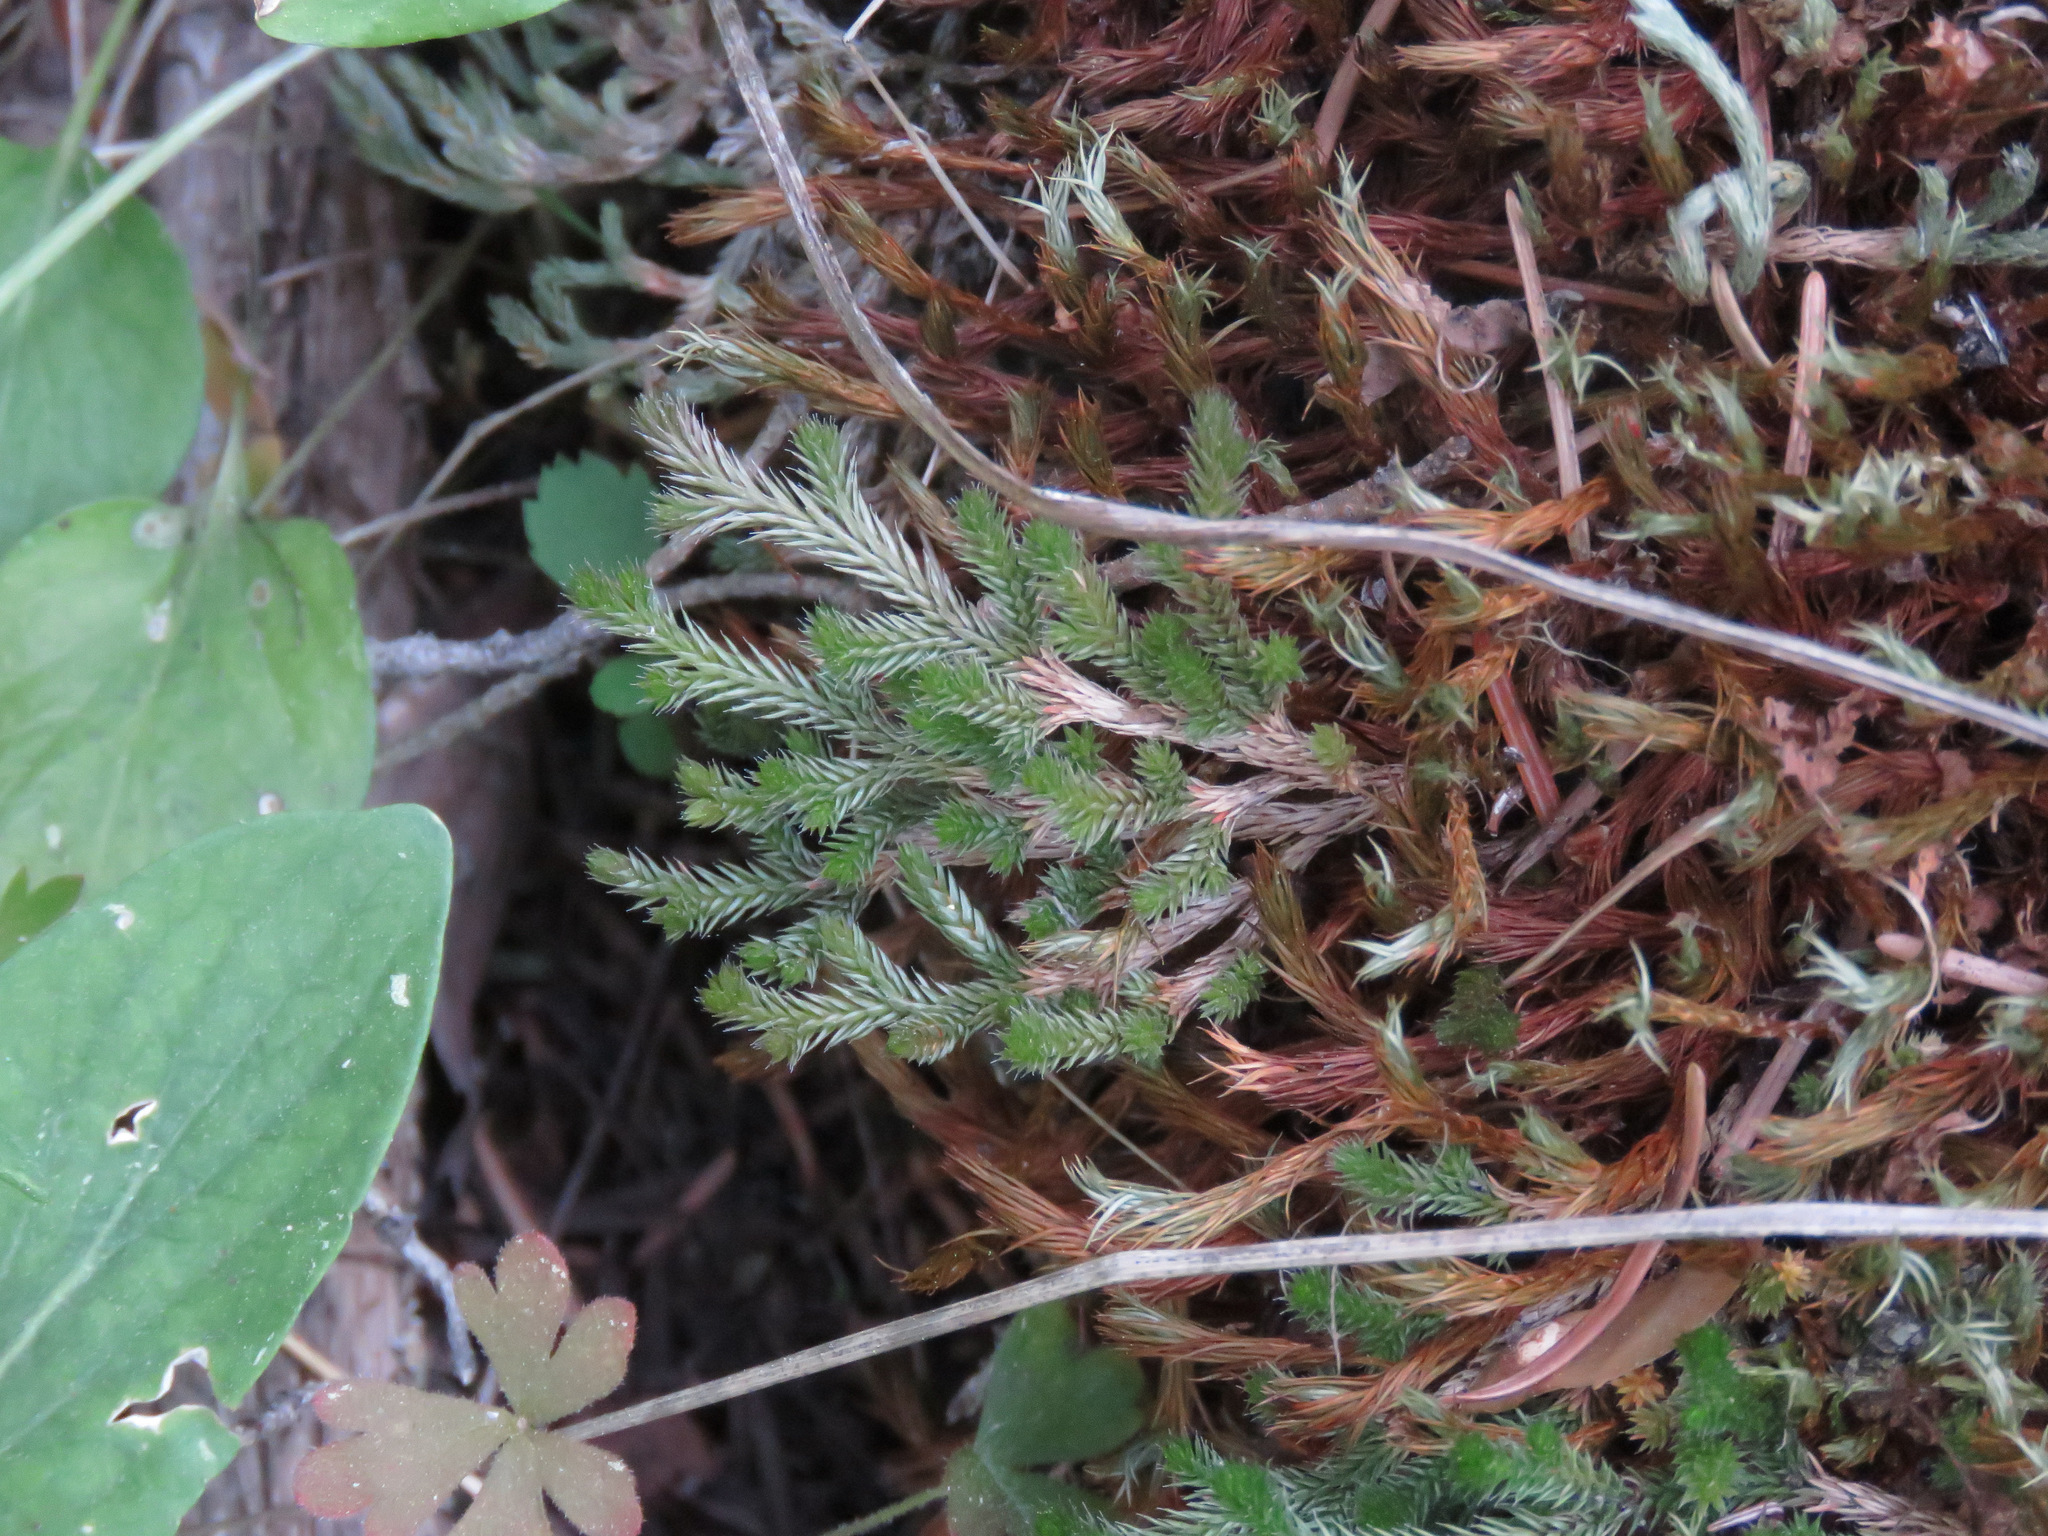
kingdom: Plantae
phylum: Tracheophyta
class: Lycopodiopsida
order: Selaginellales
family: Selaginellaceae
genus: Selaginella
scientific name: Selaginella wallacei
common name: Wallace's selaginella
